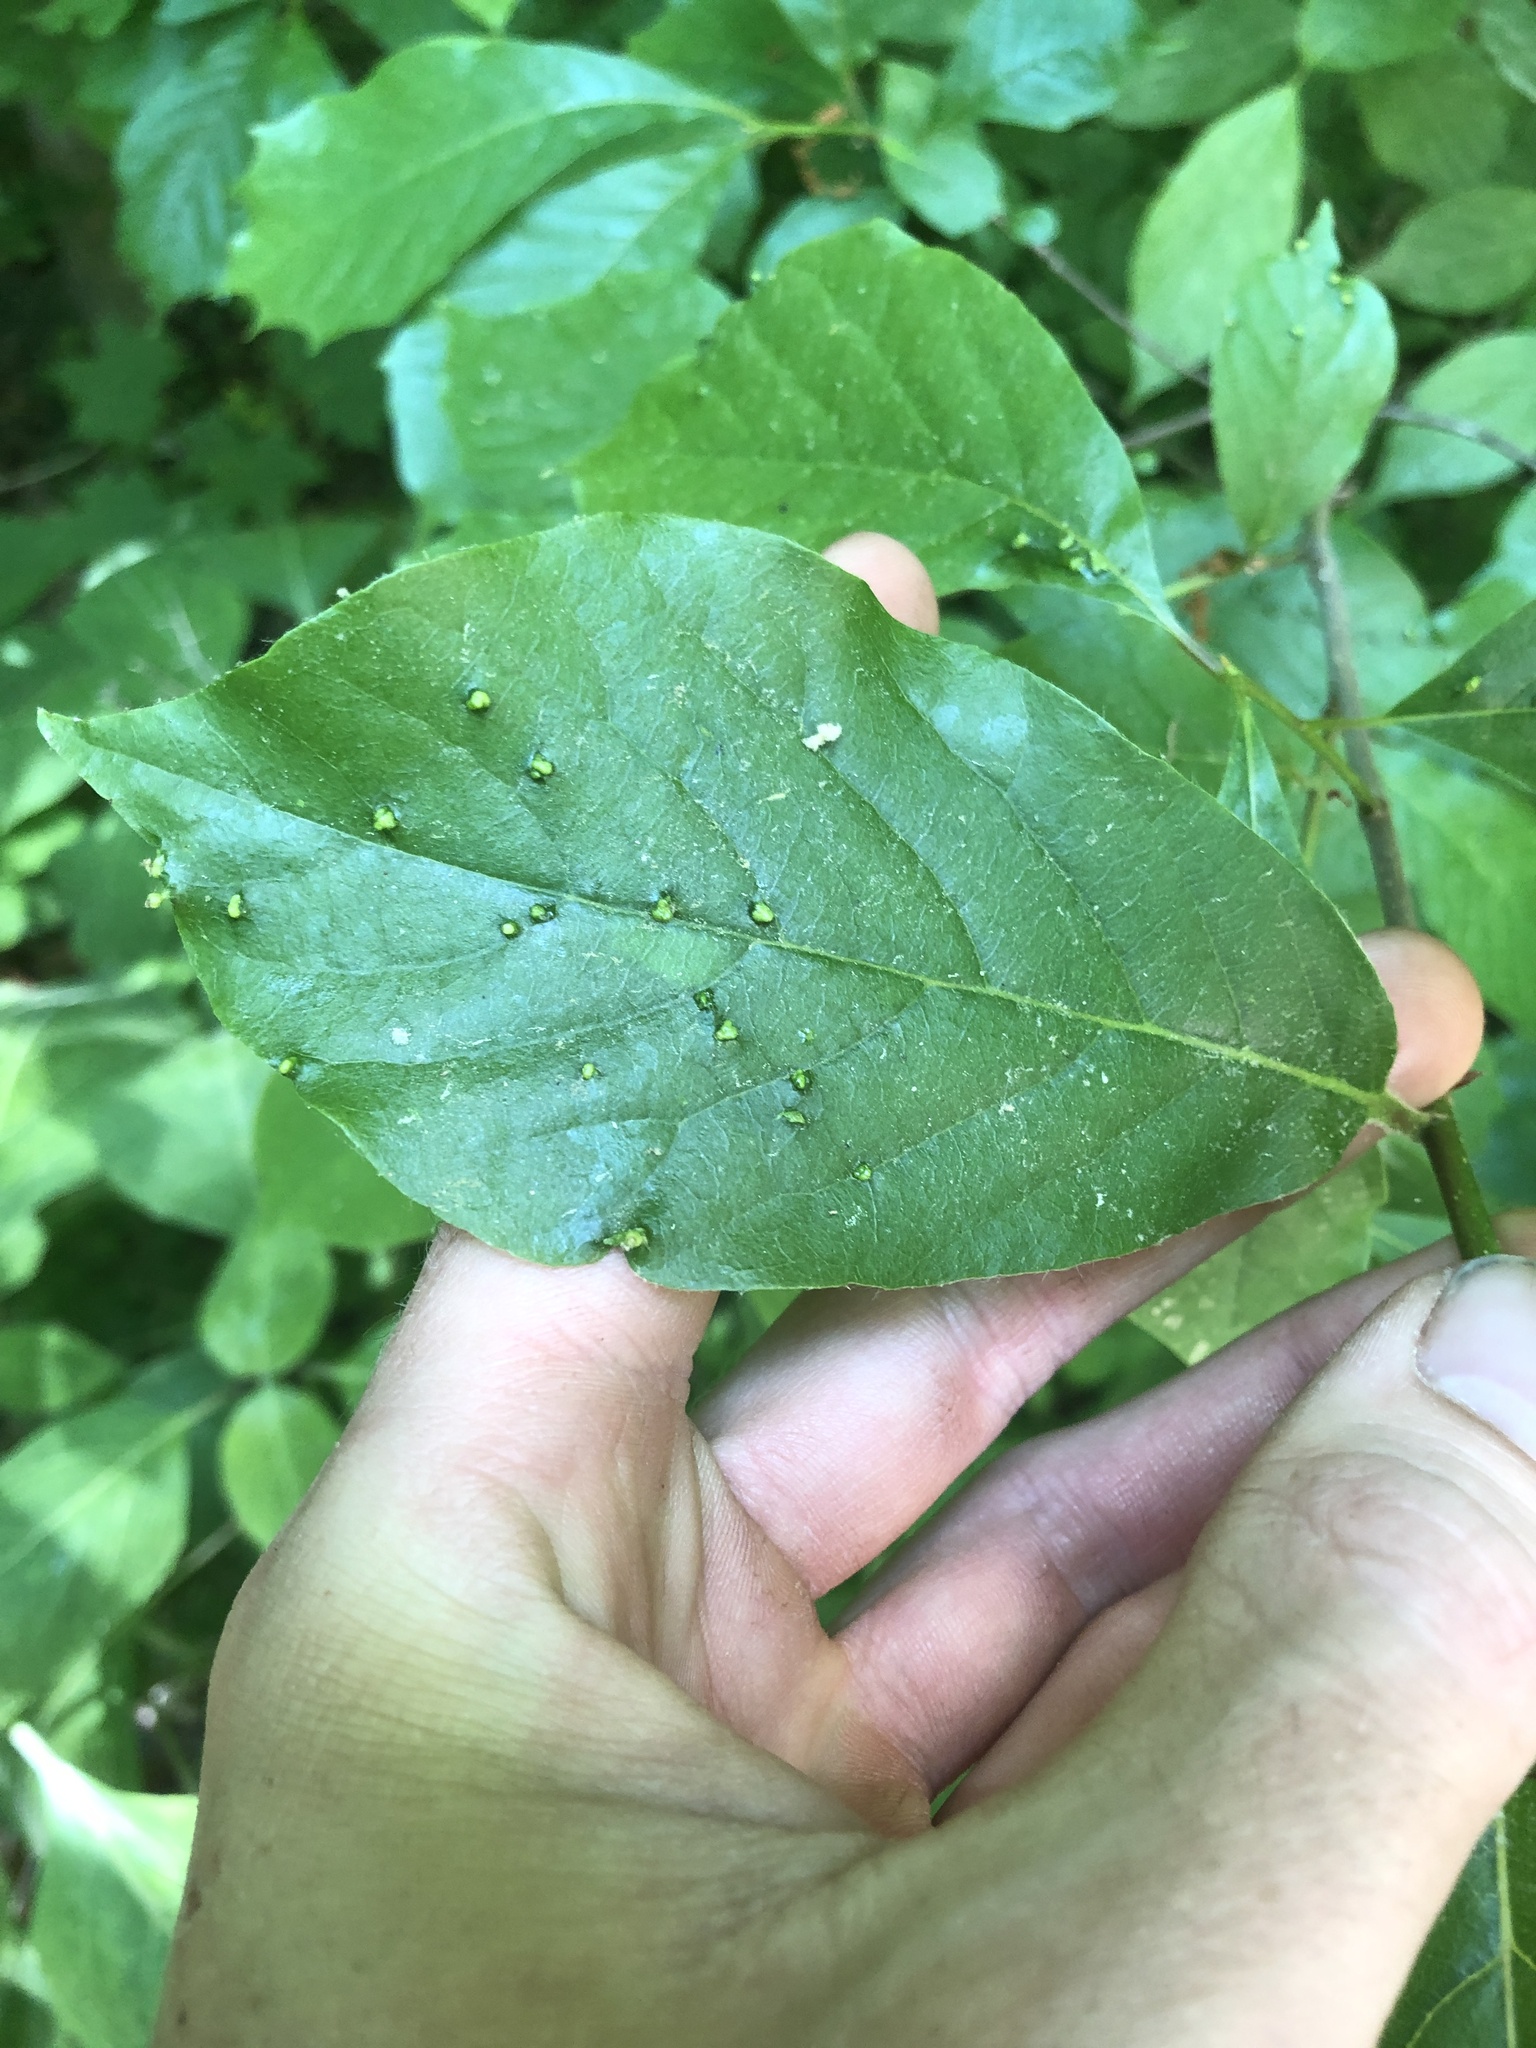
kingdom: Animalia
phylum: Arthropoda
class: Arachnida
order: Trombidiformes
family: Eriophyidae
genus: Aceria
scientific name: Aceria
